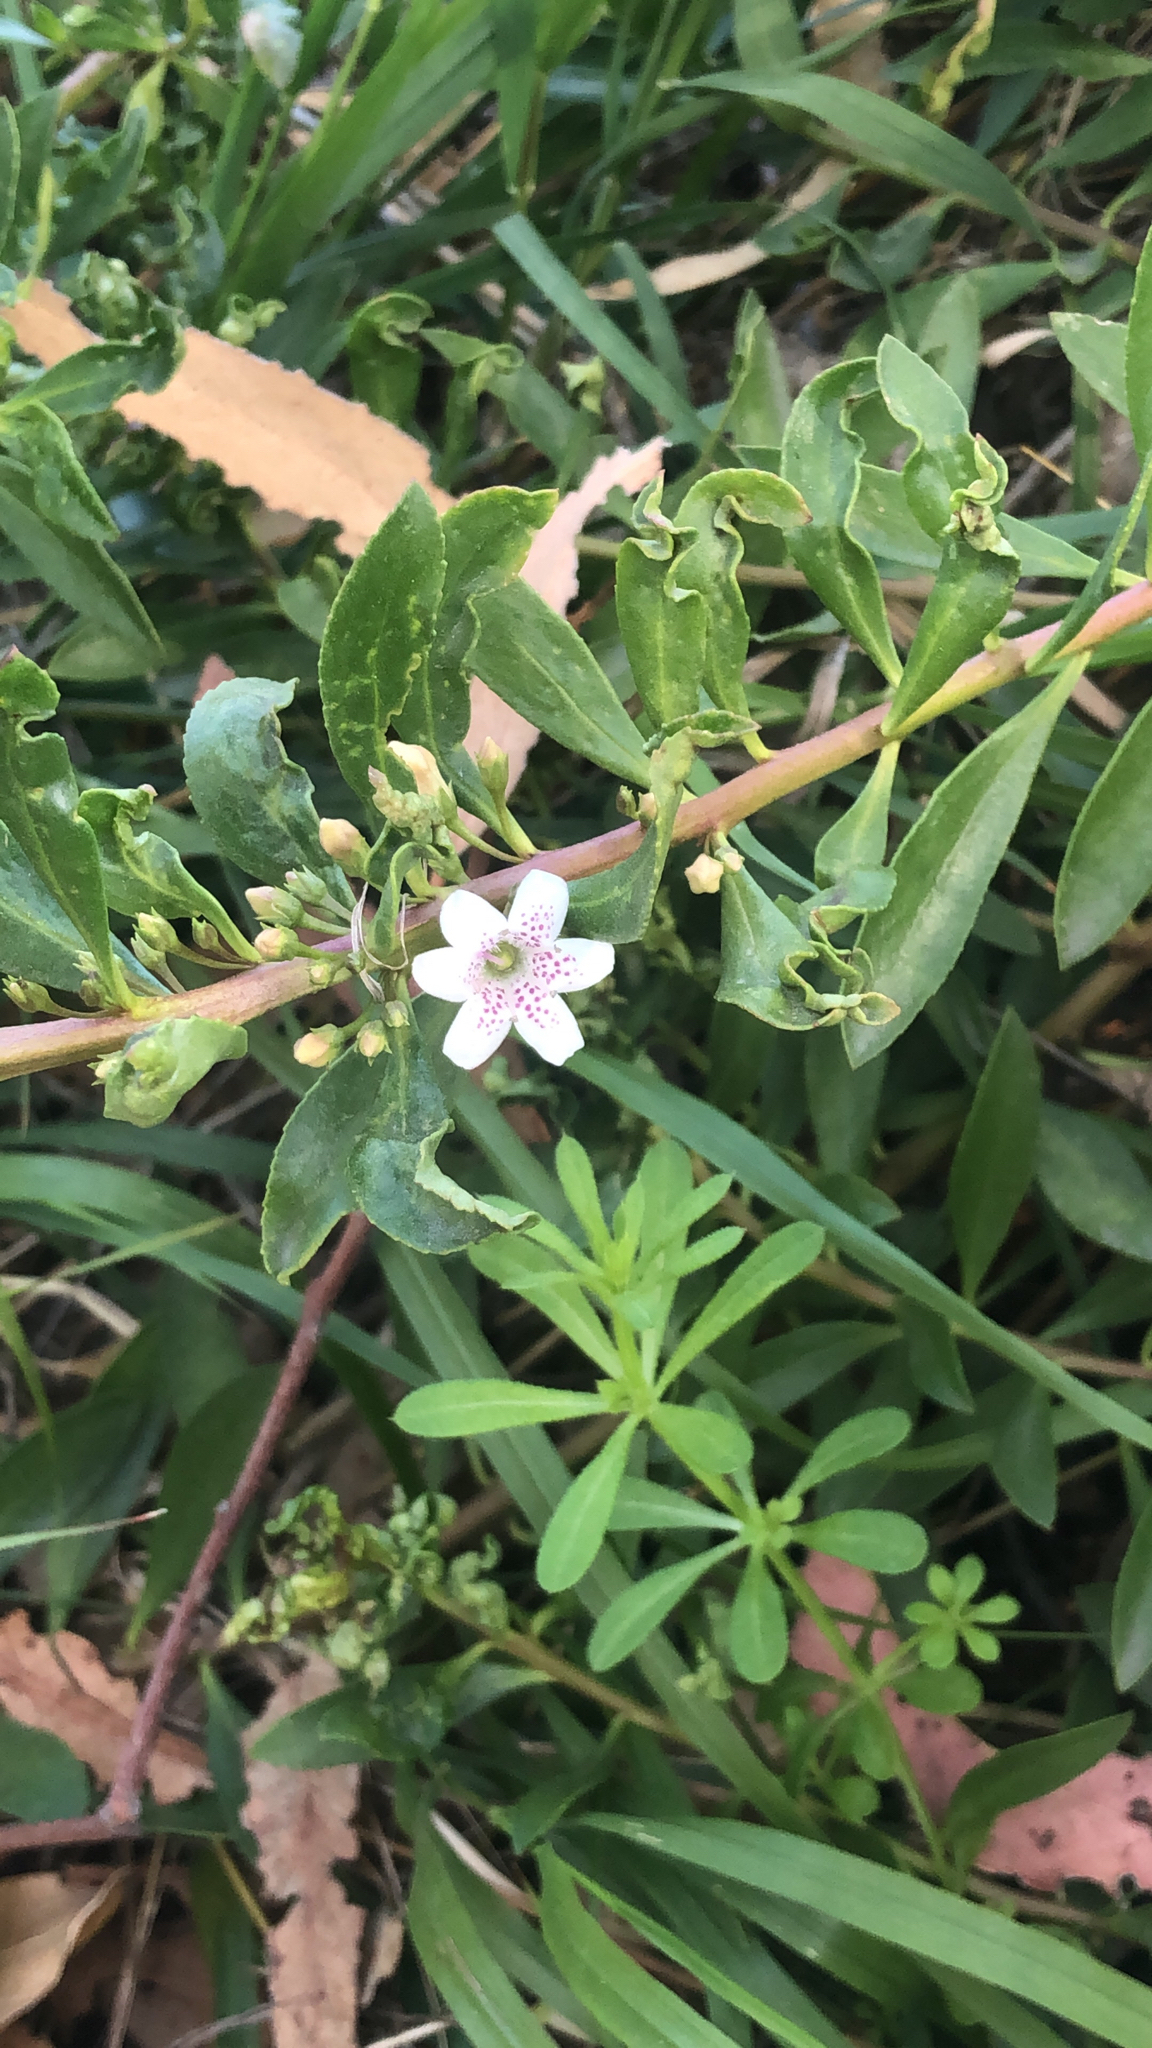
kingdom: Plantae
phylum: Tracheophyta
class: Magnoliopsida
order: Lamiales
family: Scrophulariaceae
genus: Myoporum
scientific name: Myoporum laetum
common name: Ngaio tree
